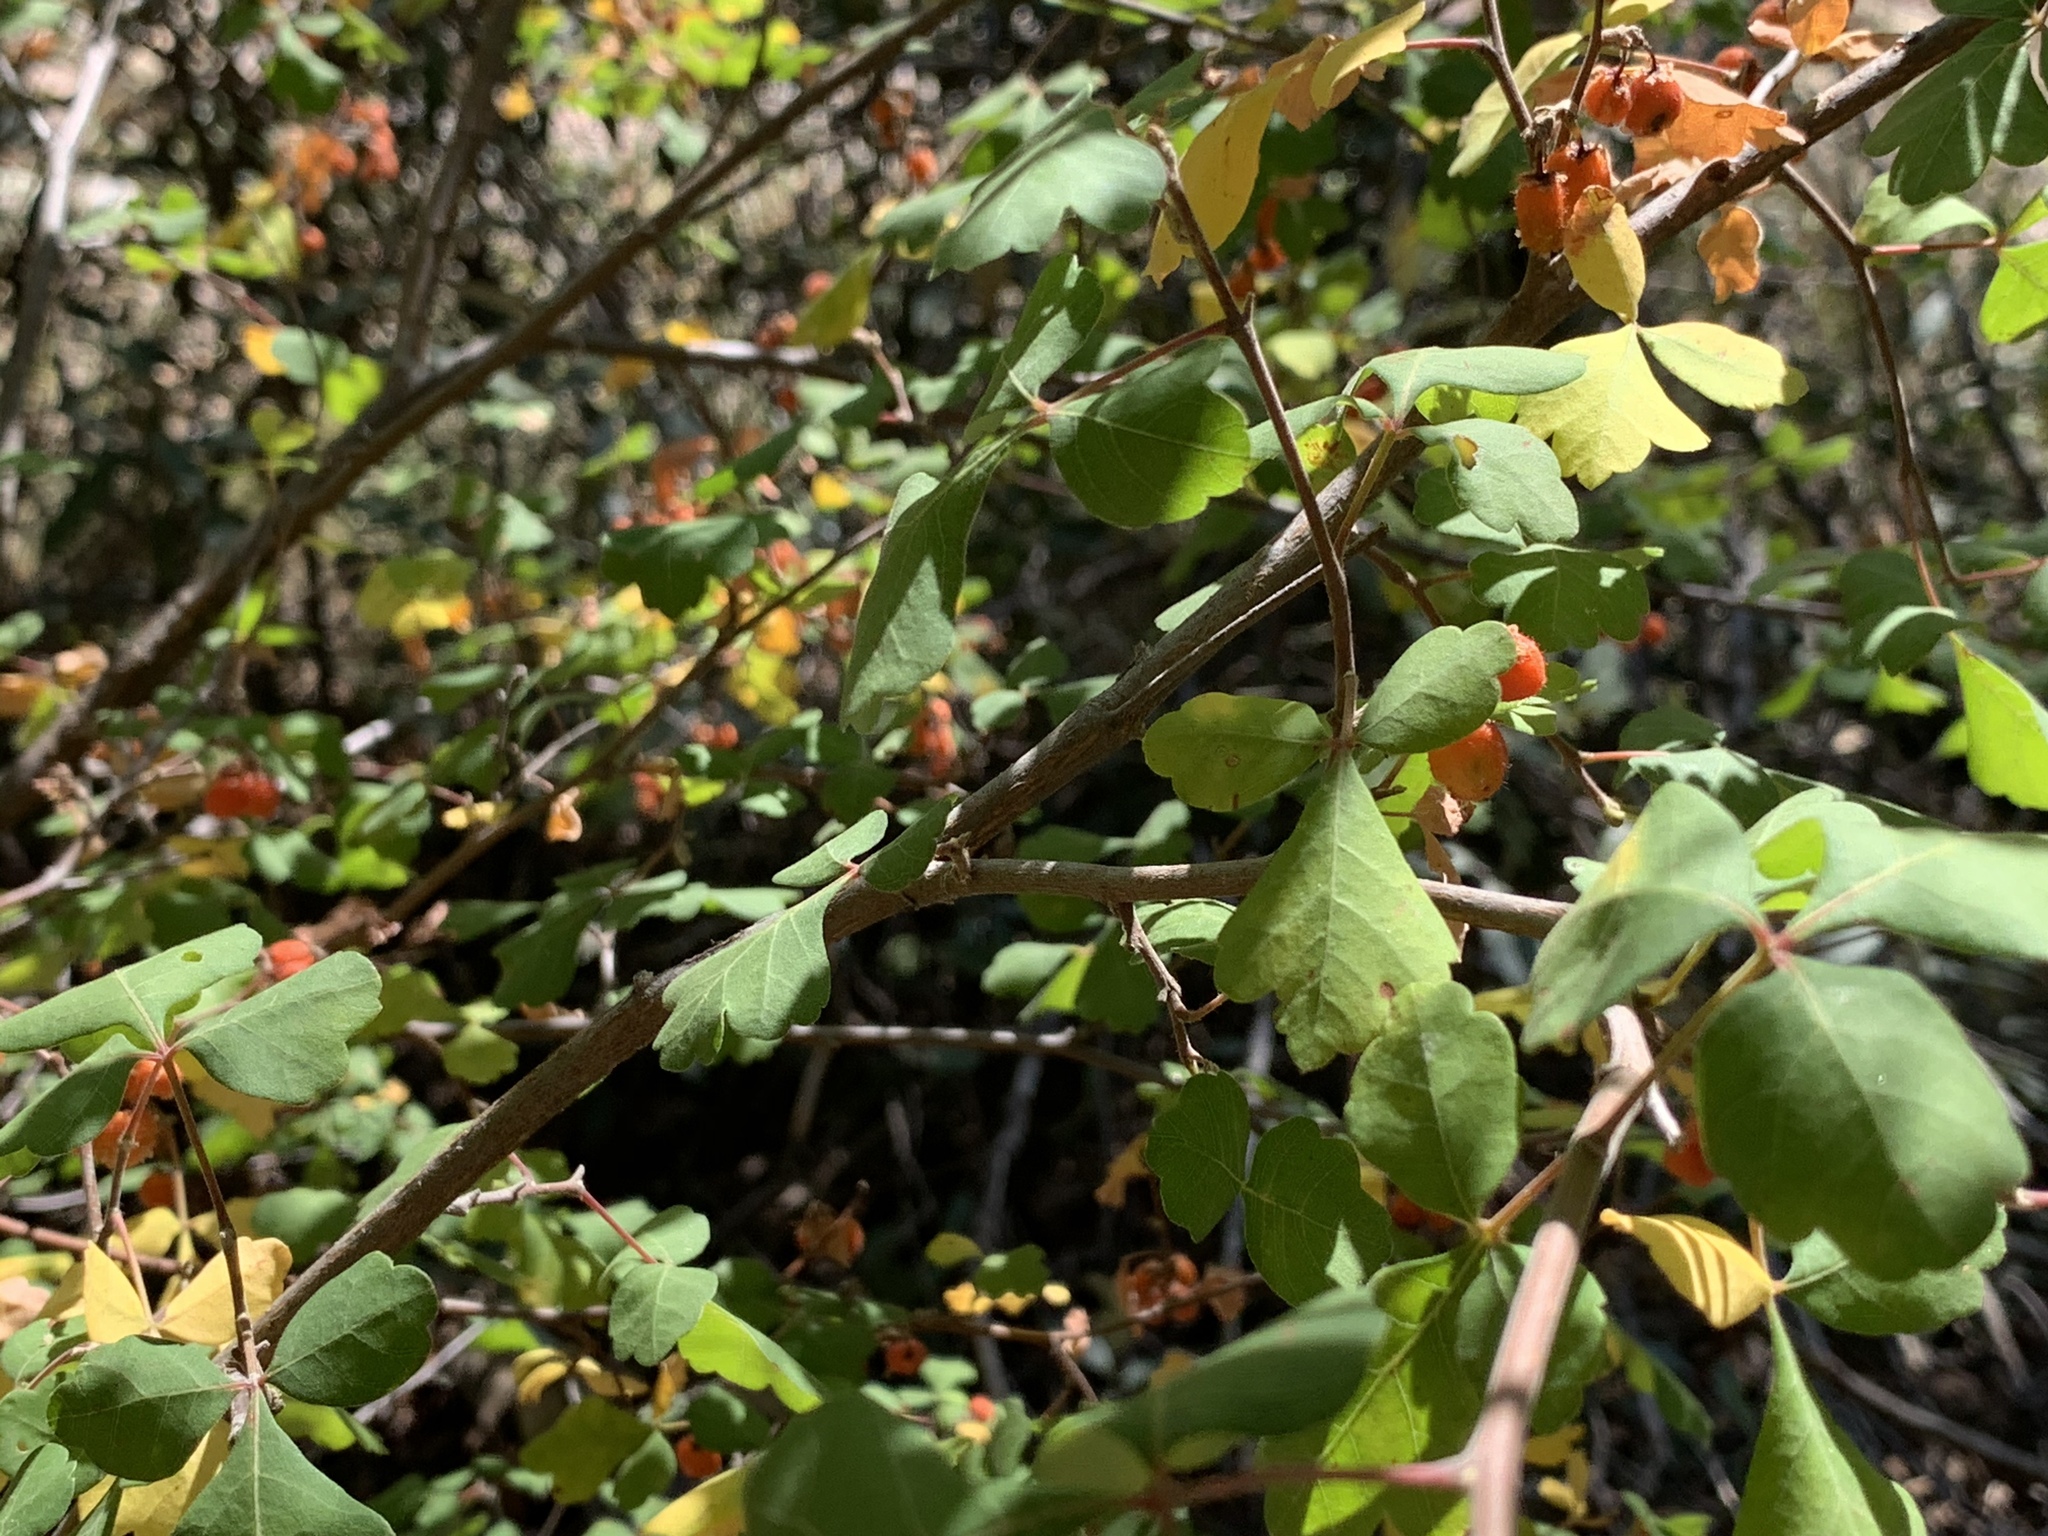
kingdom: Plantae
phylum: Tracheophyta
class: Magnoliopsida
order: Sapindales
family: Anacardiaceae
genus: Rhus
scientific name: Rhus aromatica
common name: Aromatic sumac
